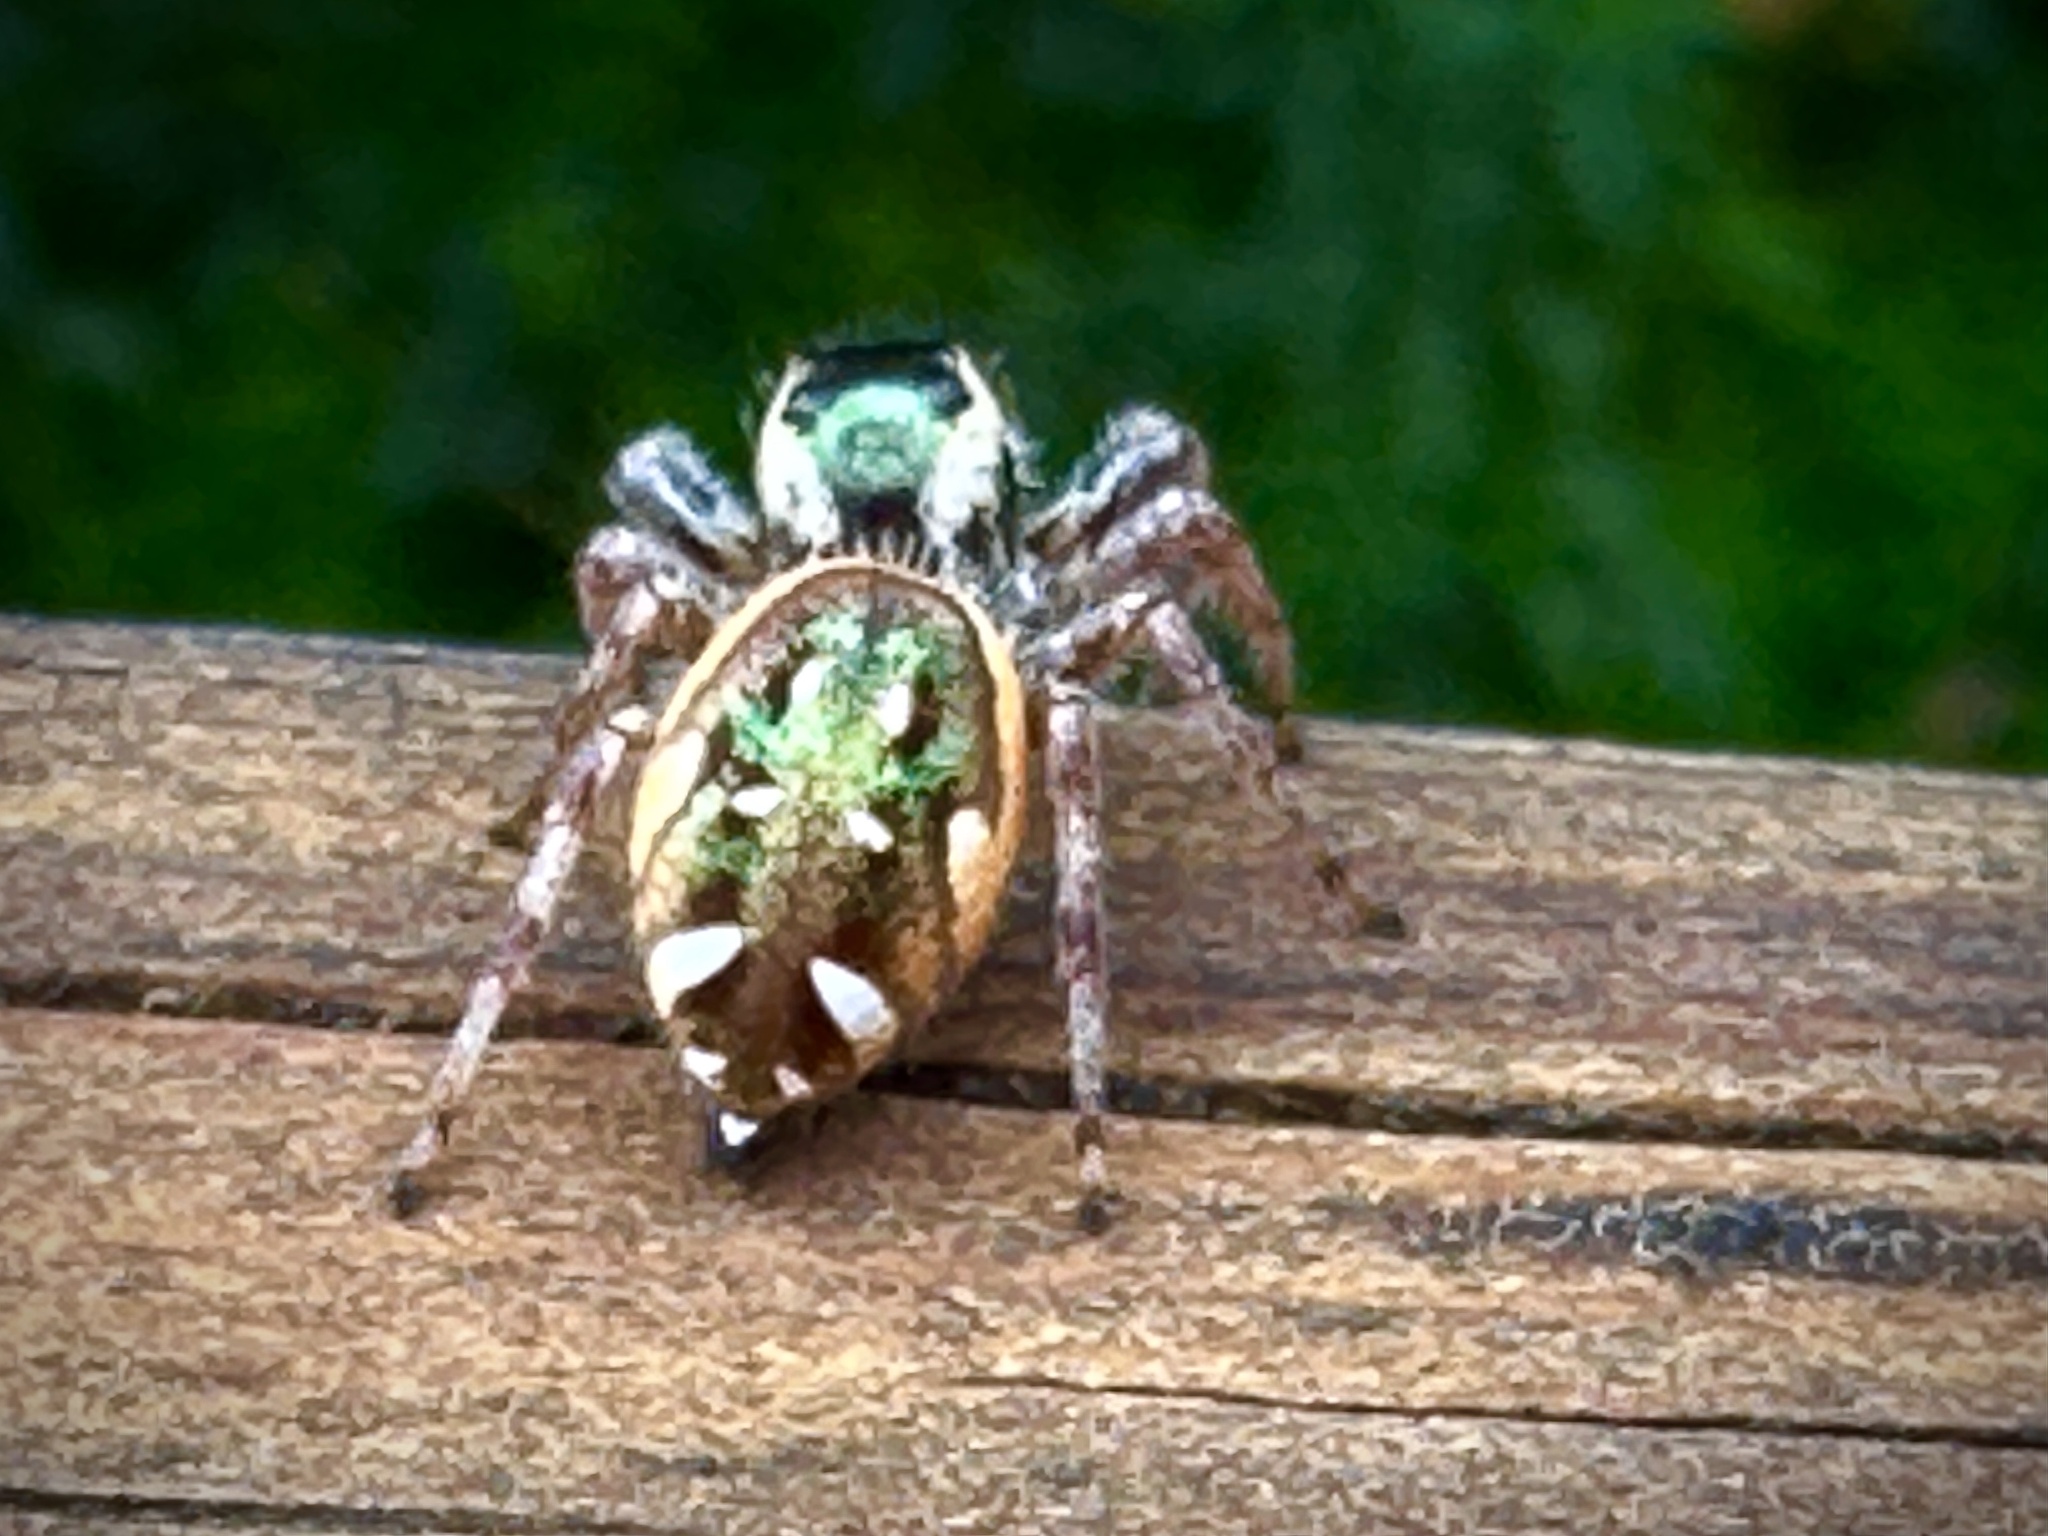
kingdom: Animalia
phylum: Arthropoda
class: Arachnida
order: Araneae
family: Salticidae
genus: Paraphidippus
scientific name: Paraphidippus aurantius
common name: Jumping spiders
